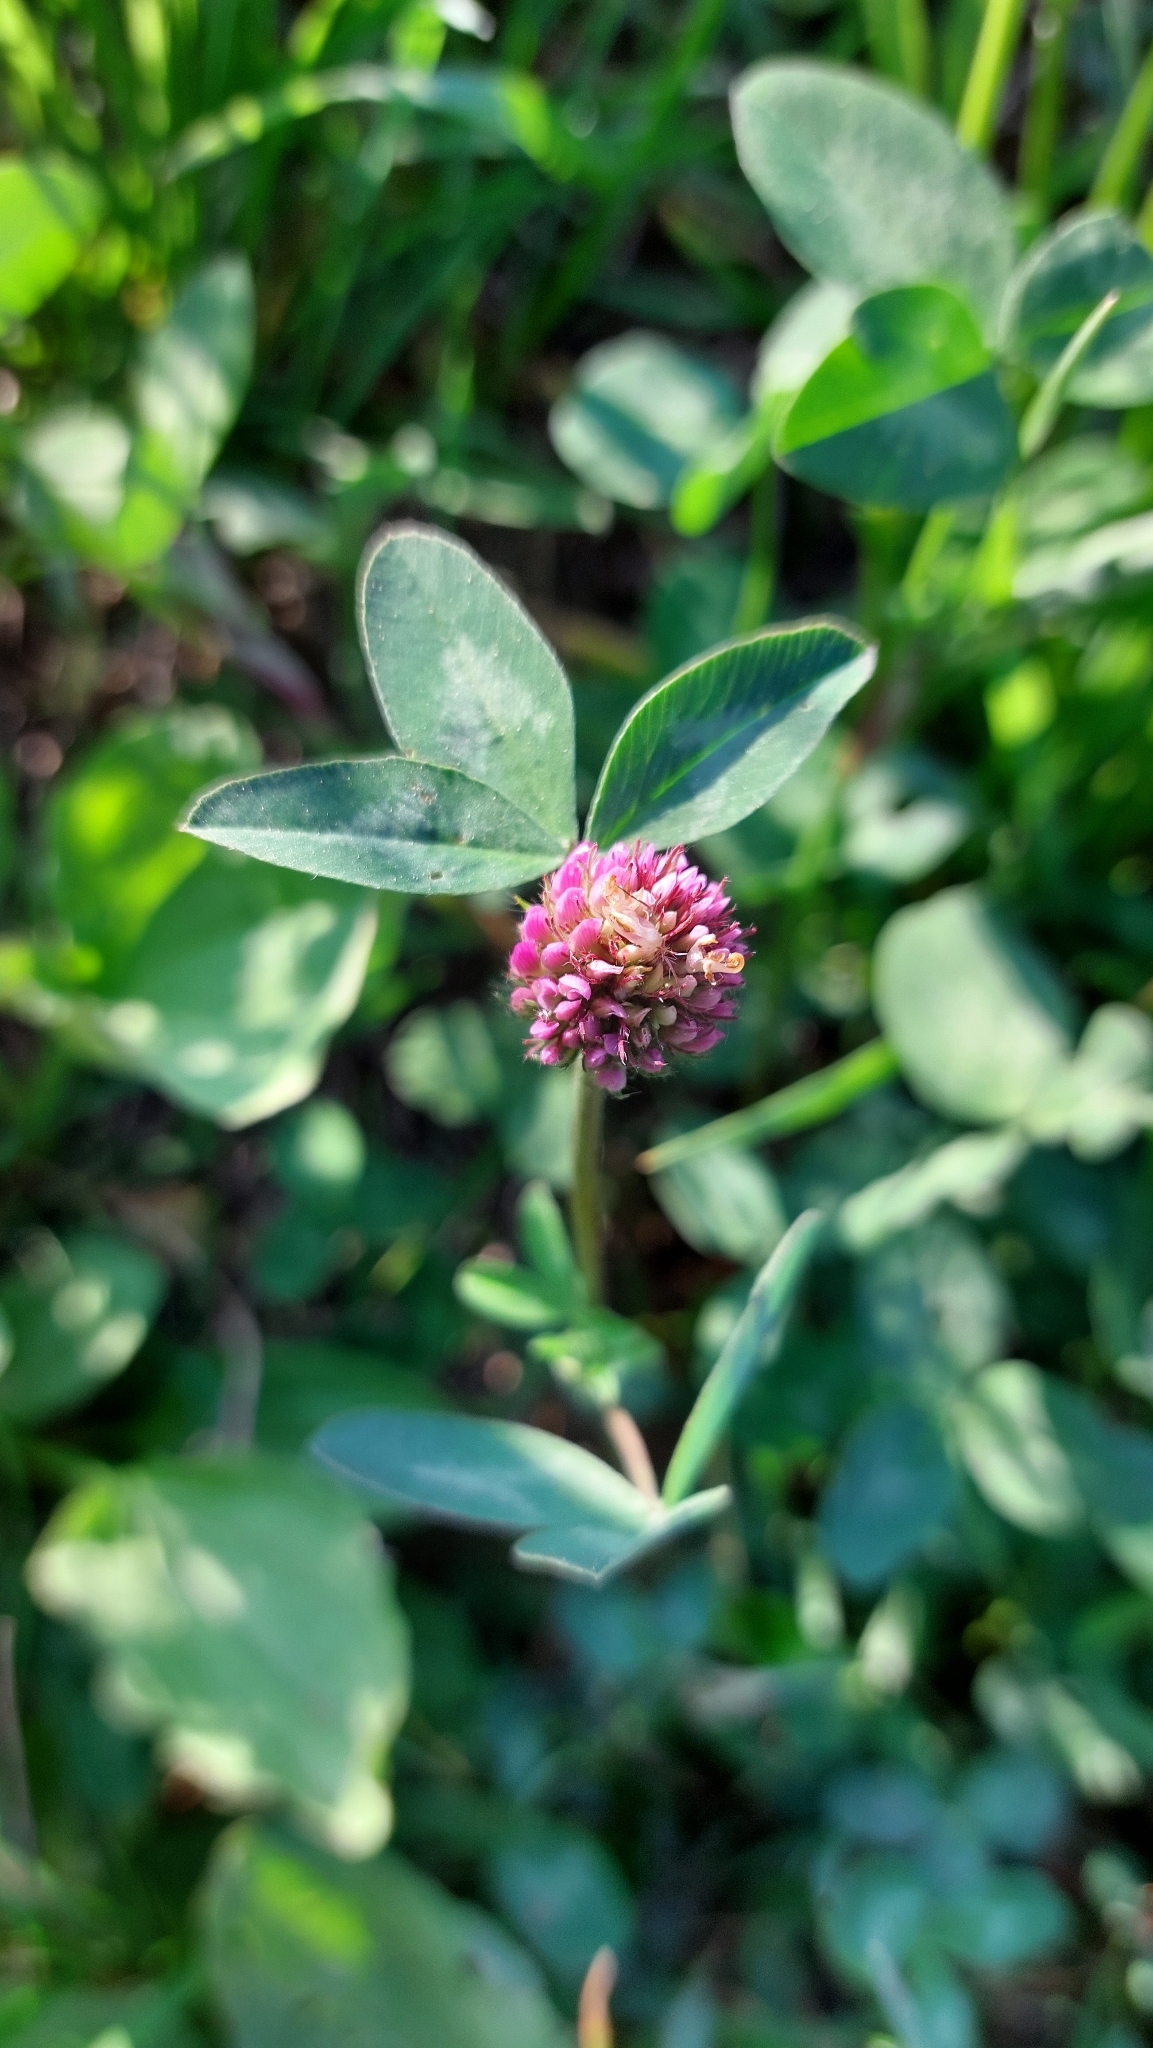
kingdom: Plantae
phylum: Tracheophyta
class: Magnoliopsida
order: Fabales
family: Fabaceae
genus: Trifolium
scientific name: Trifolium pratense
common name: Red clover
